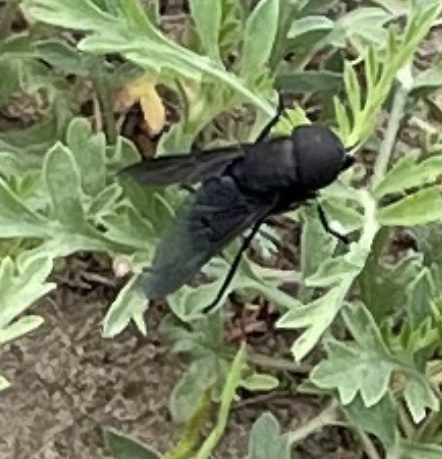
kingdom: Animalia
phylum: Arthropoda
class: Insecta
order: Diptera
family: Tabanidae
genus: Tabanus
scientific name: Tabanus atratus
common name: Black horse fly
